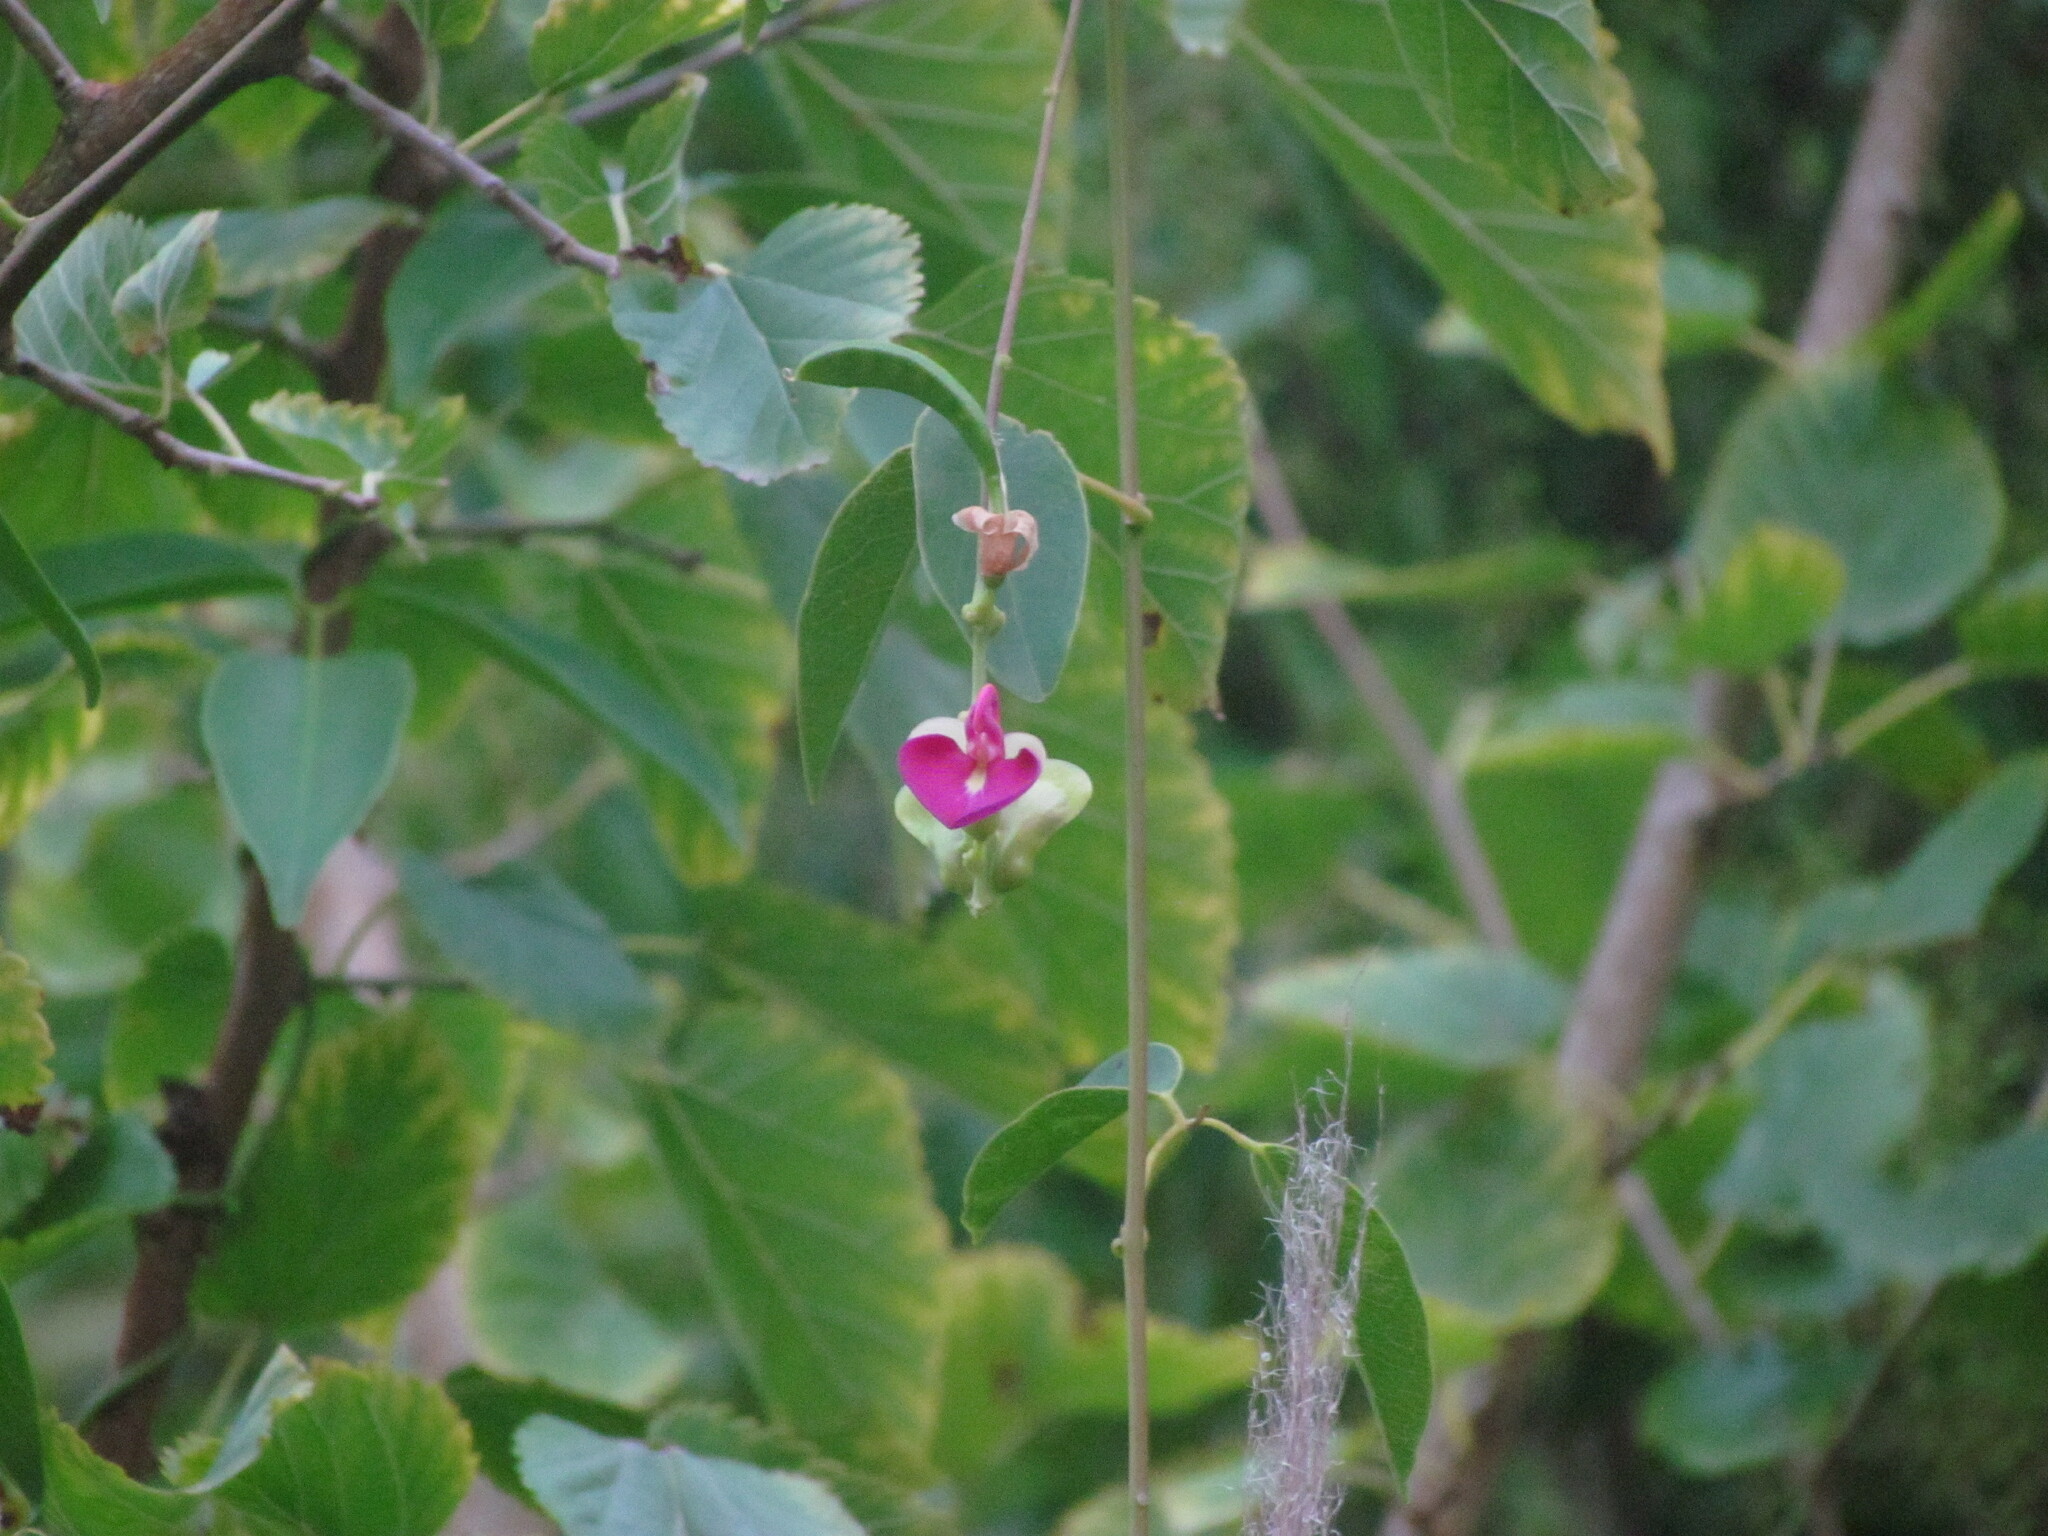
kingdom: Plantae
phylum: Tracheophyta
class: Magnoliopsida
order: Fabales
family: Fabaceae
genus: Canavalia
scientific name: Canavalia bonariensis
